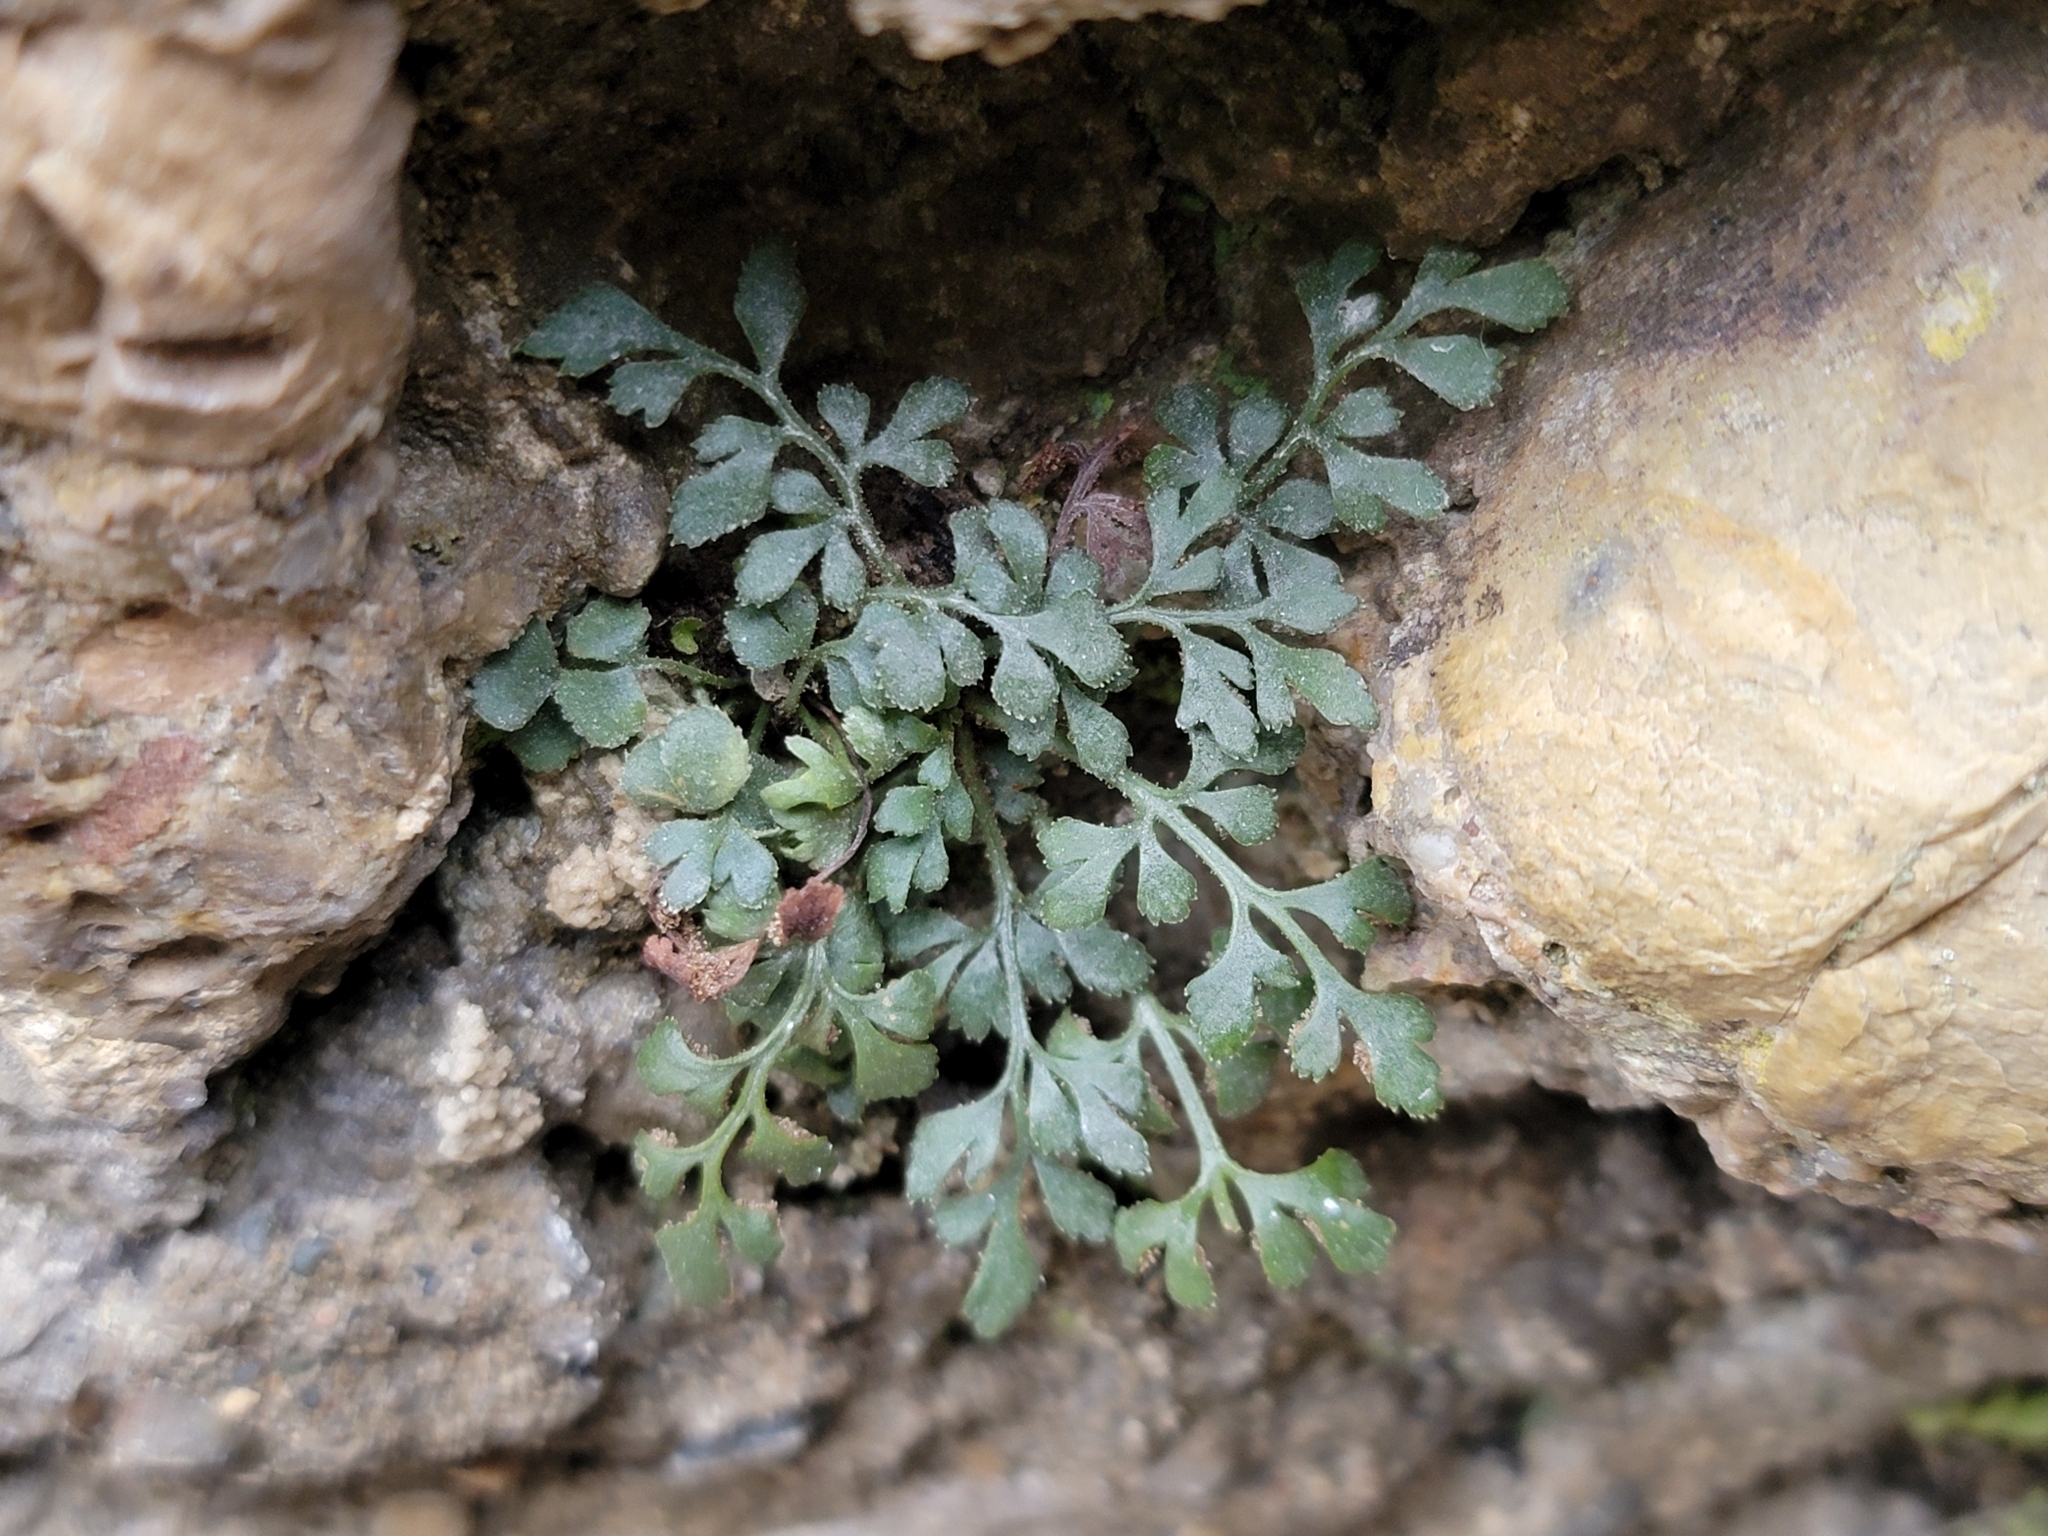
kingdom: Plantae
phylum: Tracheophyta
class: Polypodiopsida
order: Polypodiales
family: Aspleniaceae
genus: Asplenium
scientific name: Asplenium ruta-muraria
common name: Wall-rue
